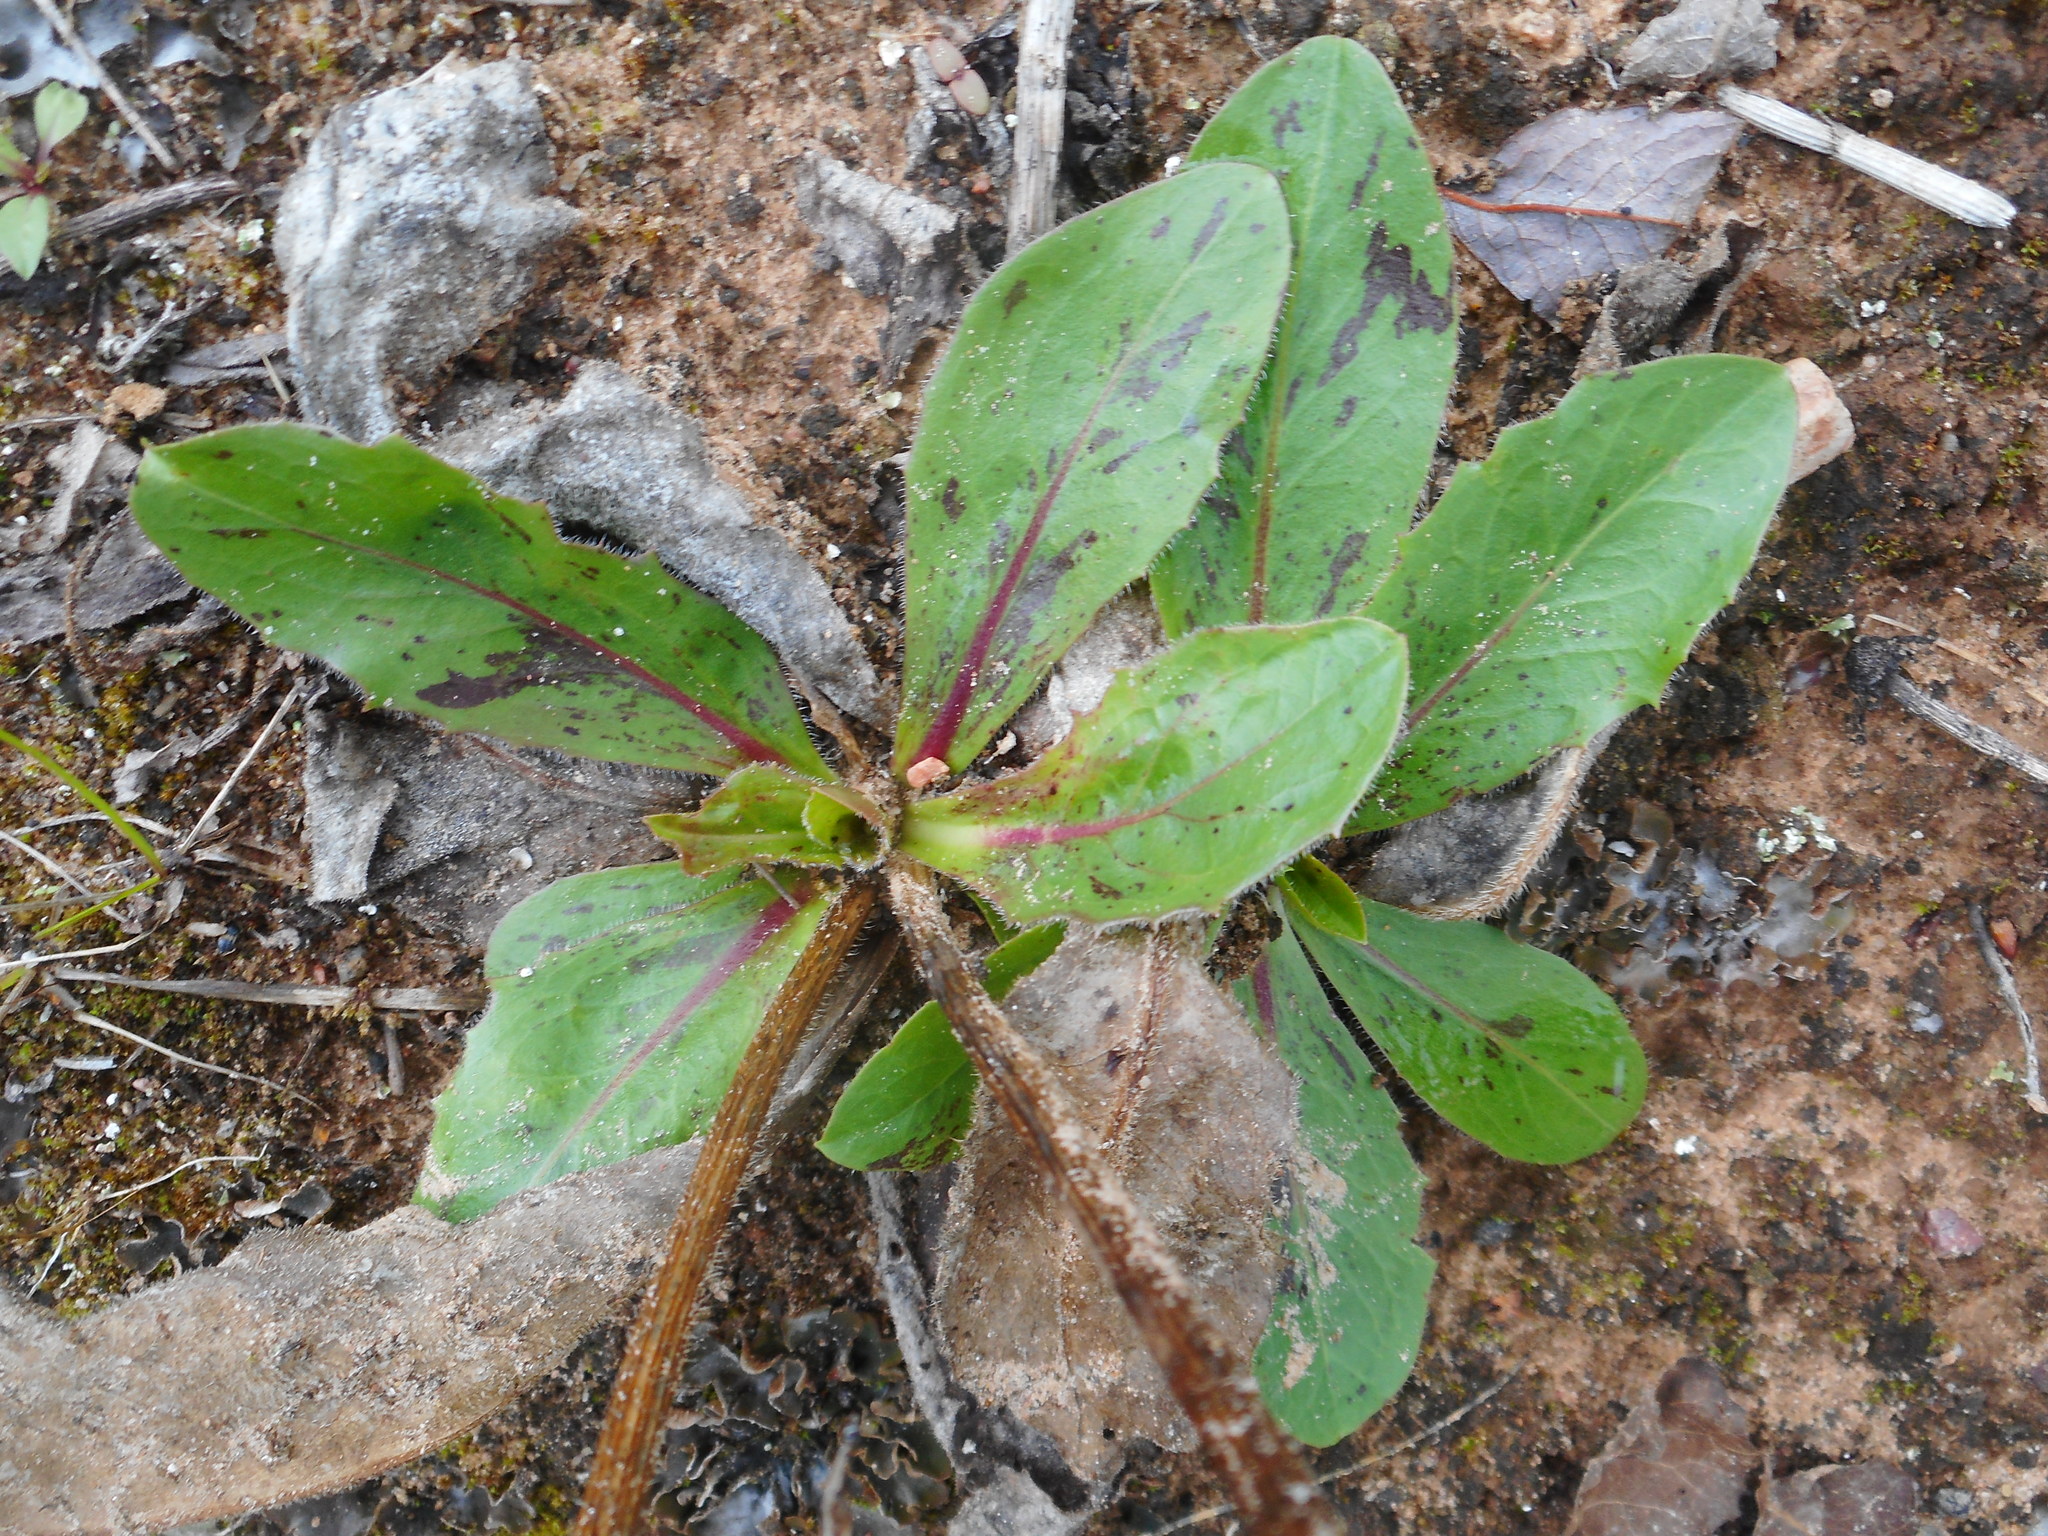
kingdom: Plantae
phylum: Tracheophyta
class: Magnoliopsida
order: Asterales
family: Asteraceae
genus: Trommsdorffia
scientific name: Trommsdorffia maculata
